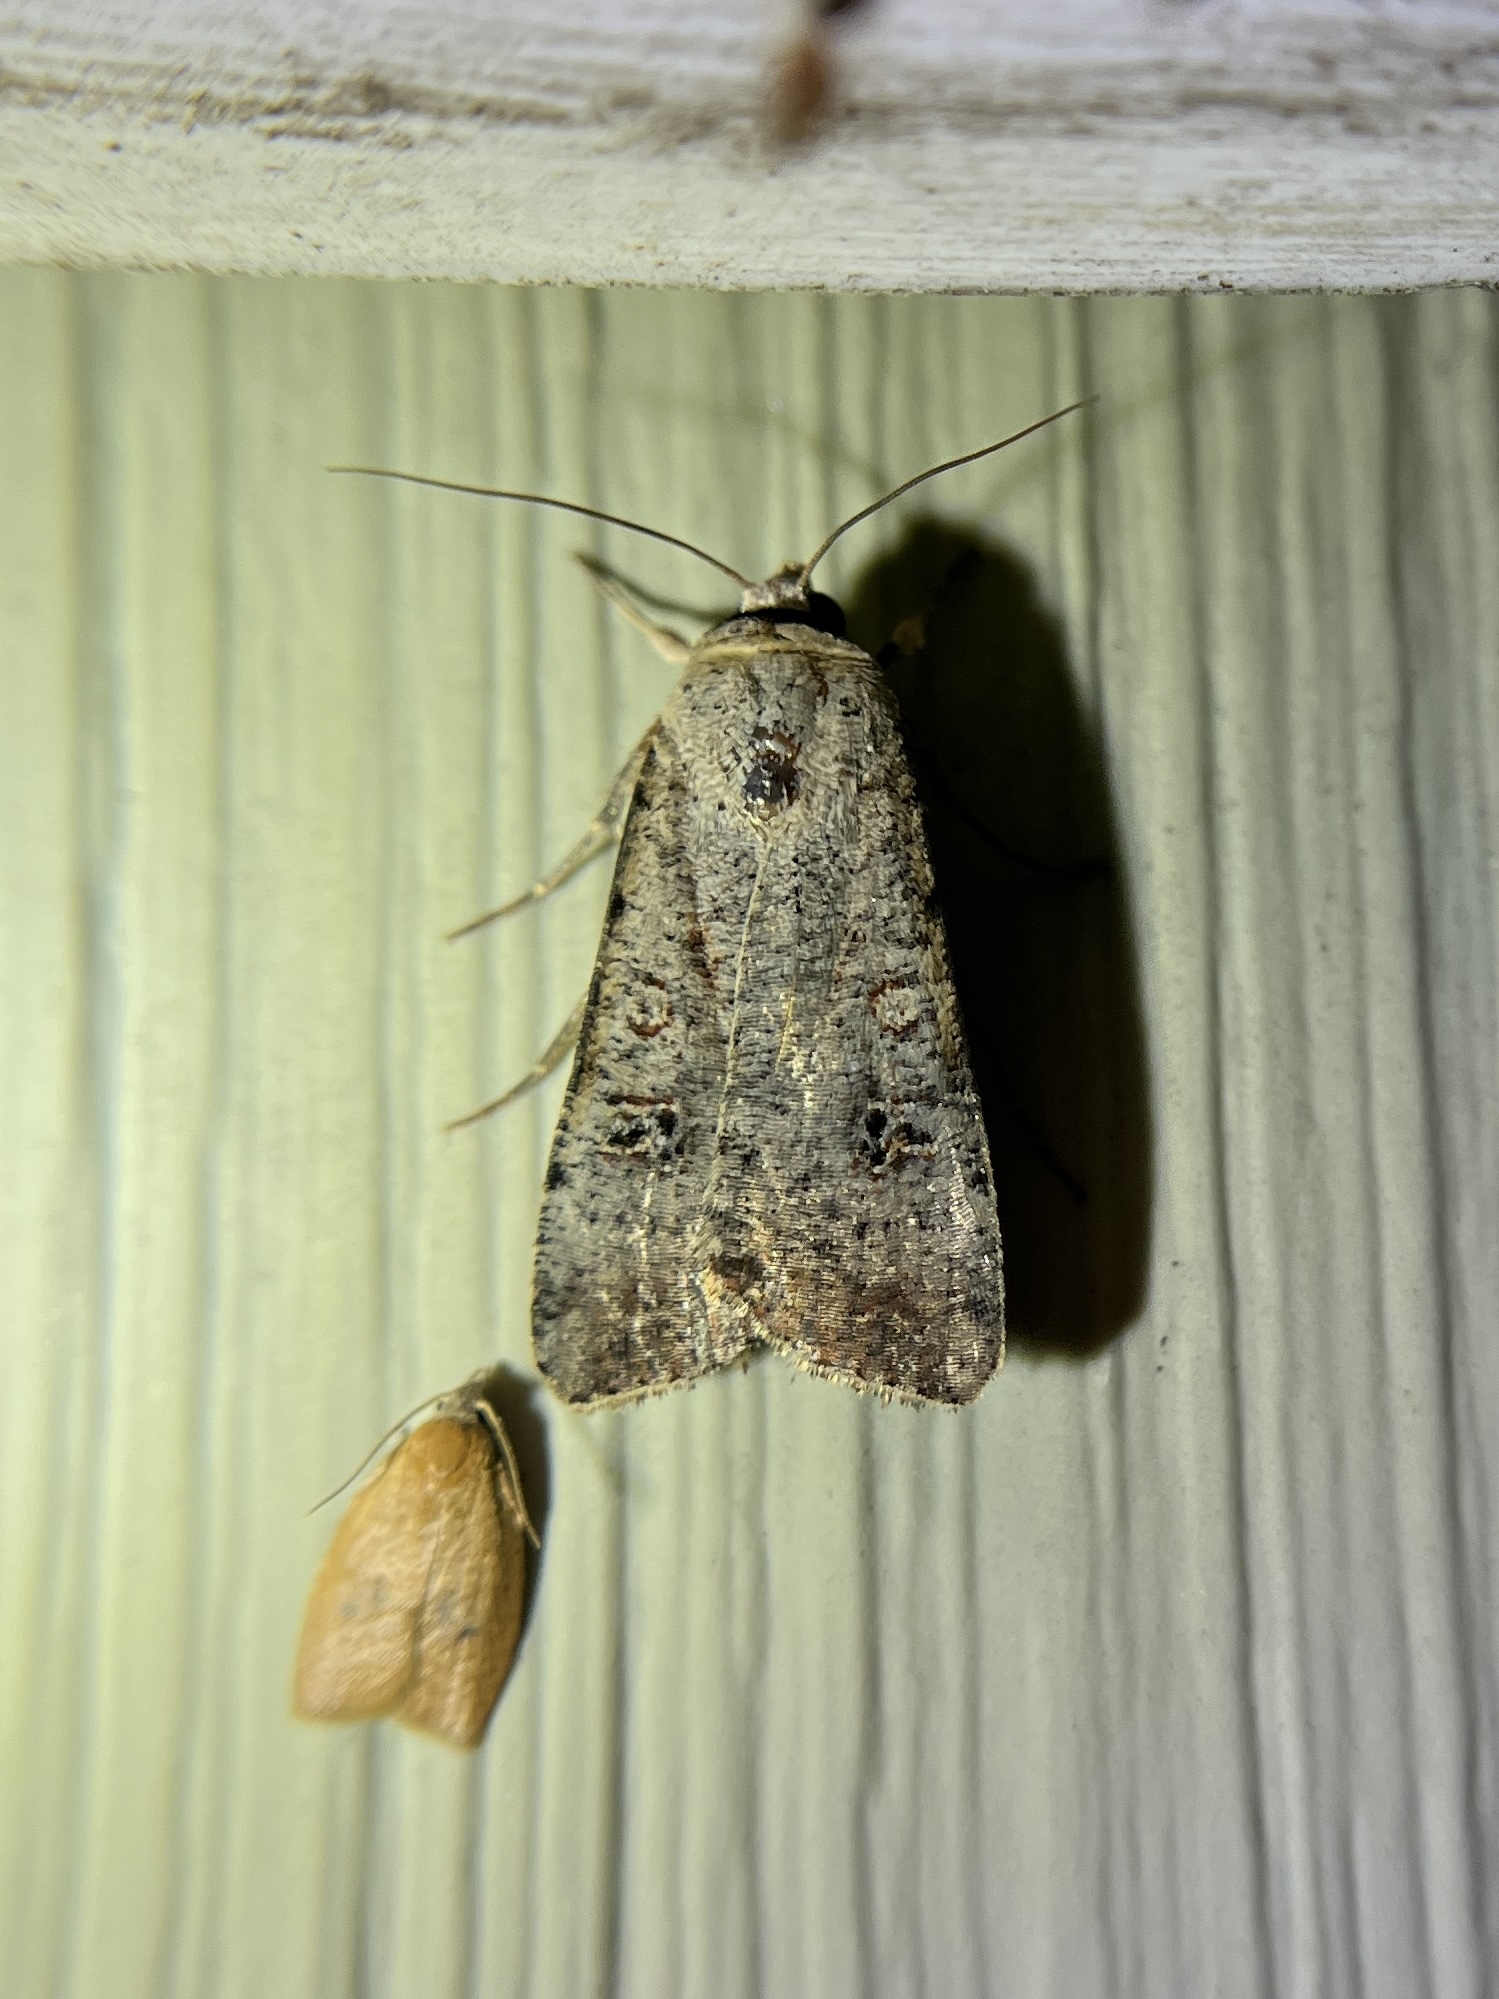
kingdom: Animalia
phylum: Arthropoda
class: Insecta
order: Lepidoptera
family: Noctuidae
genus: Anicla
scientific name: Anicla infecta
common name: Green cutworm
